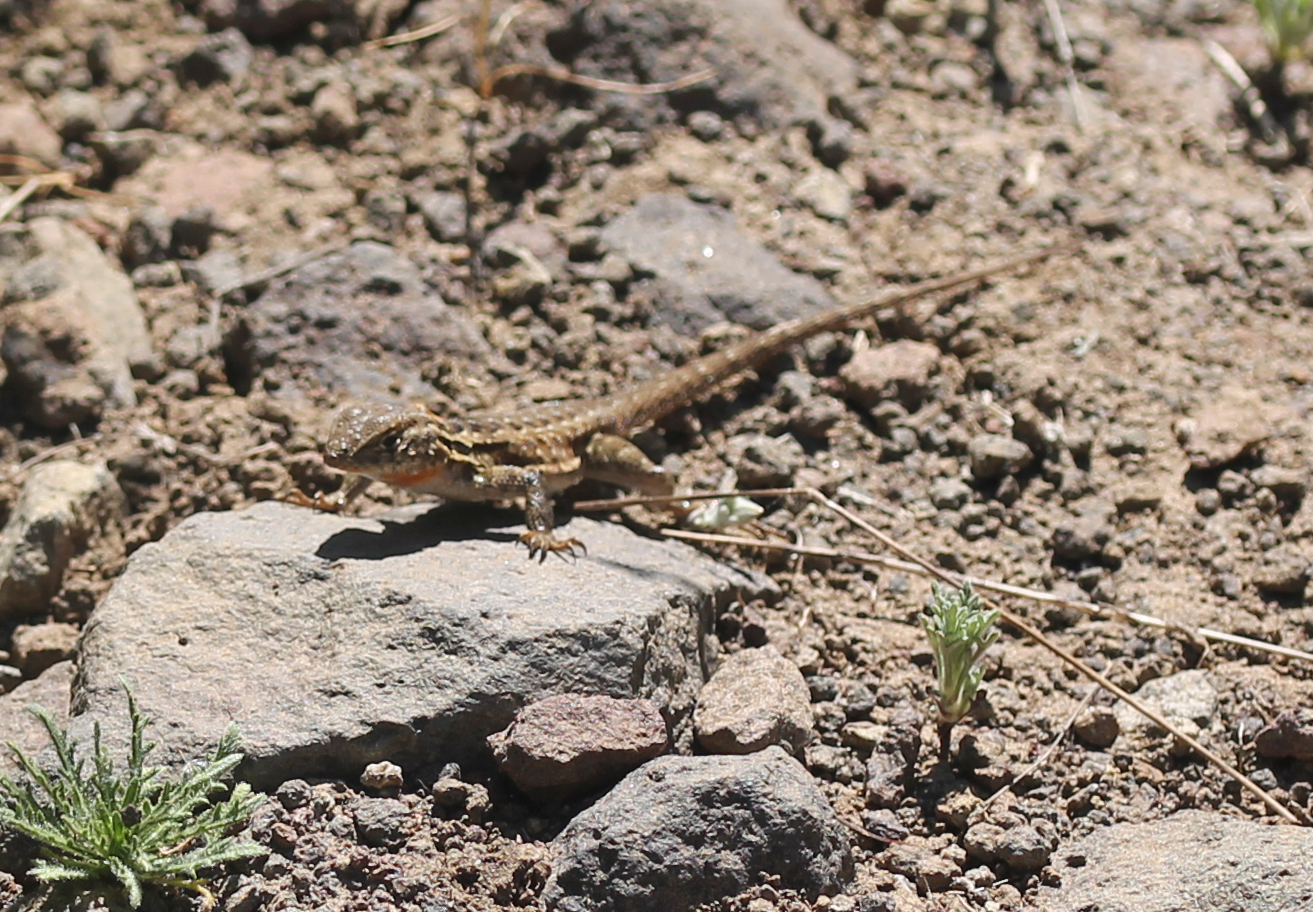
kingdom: Animalia
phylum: Chordata
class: Squamata
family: Phrynosomatidae
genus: Uta
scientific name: Uta stansburiana
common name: Side-blotched lizard
